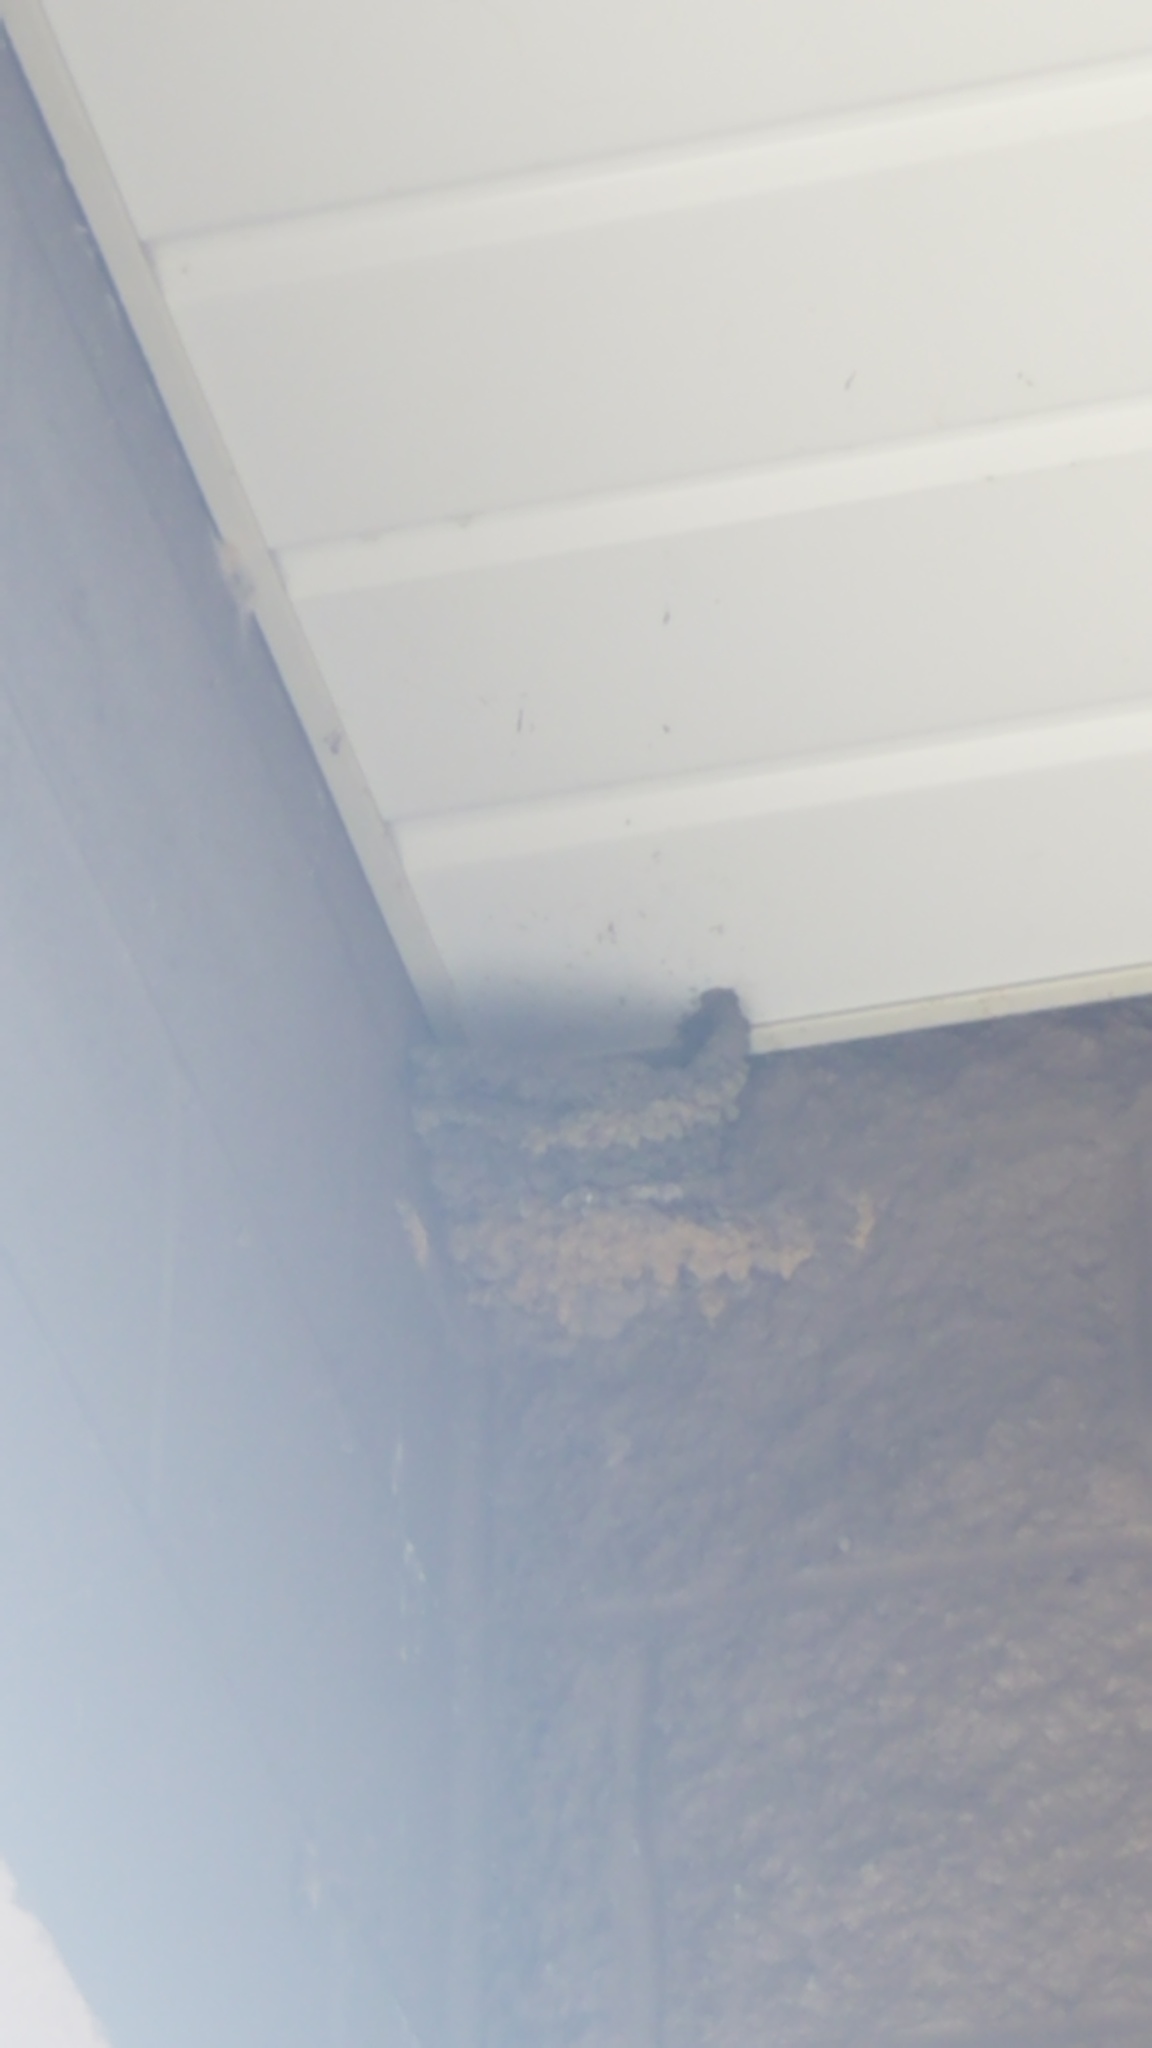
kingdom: Animalia
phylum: Chordata
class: Aves
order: Passeriformes
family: Hirundinidae
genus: Hirundo
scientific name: Hirundo rustica
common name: Barn swallow
